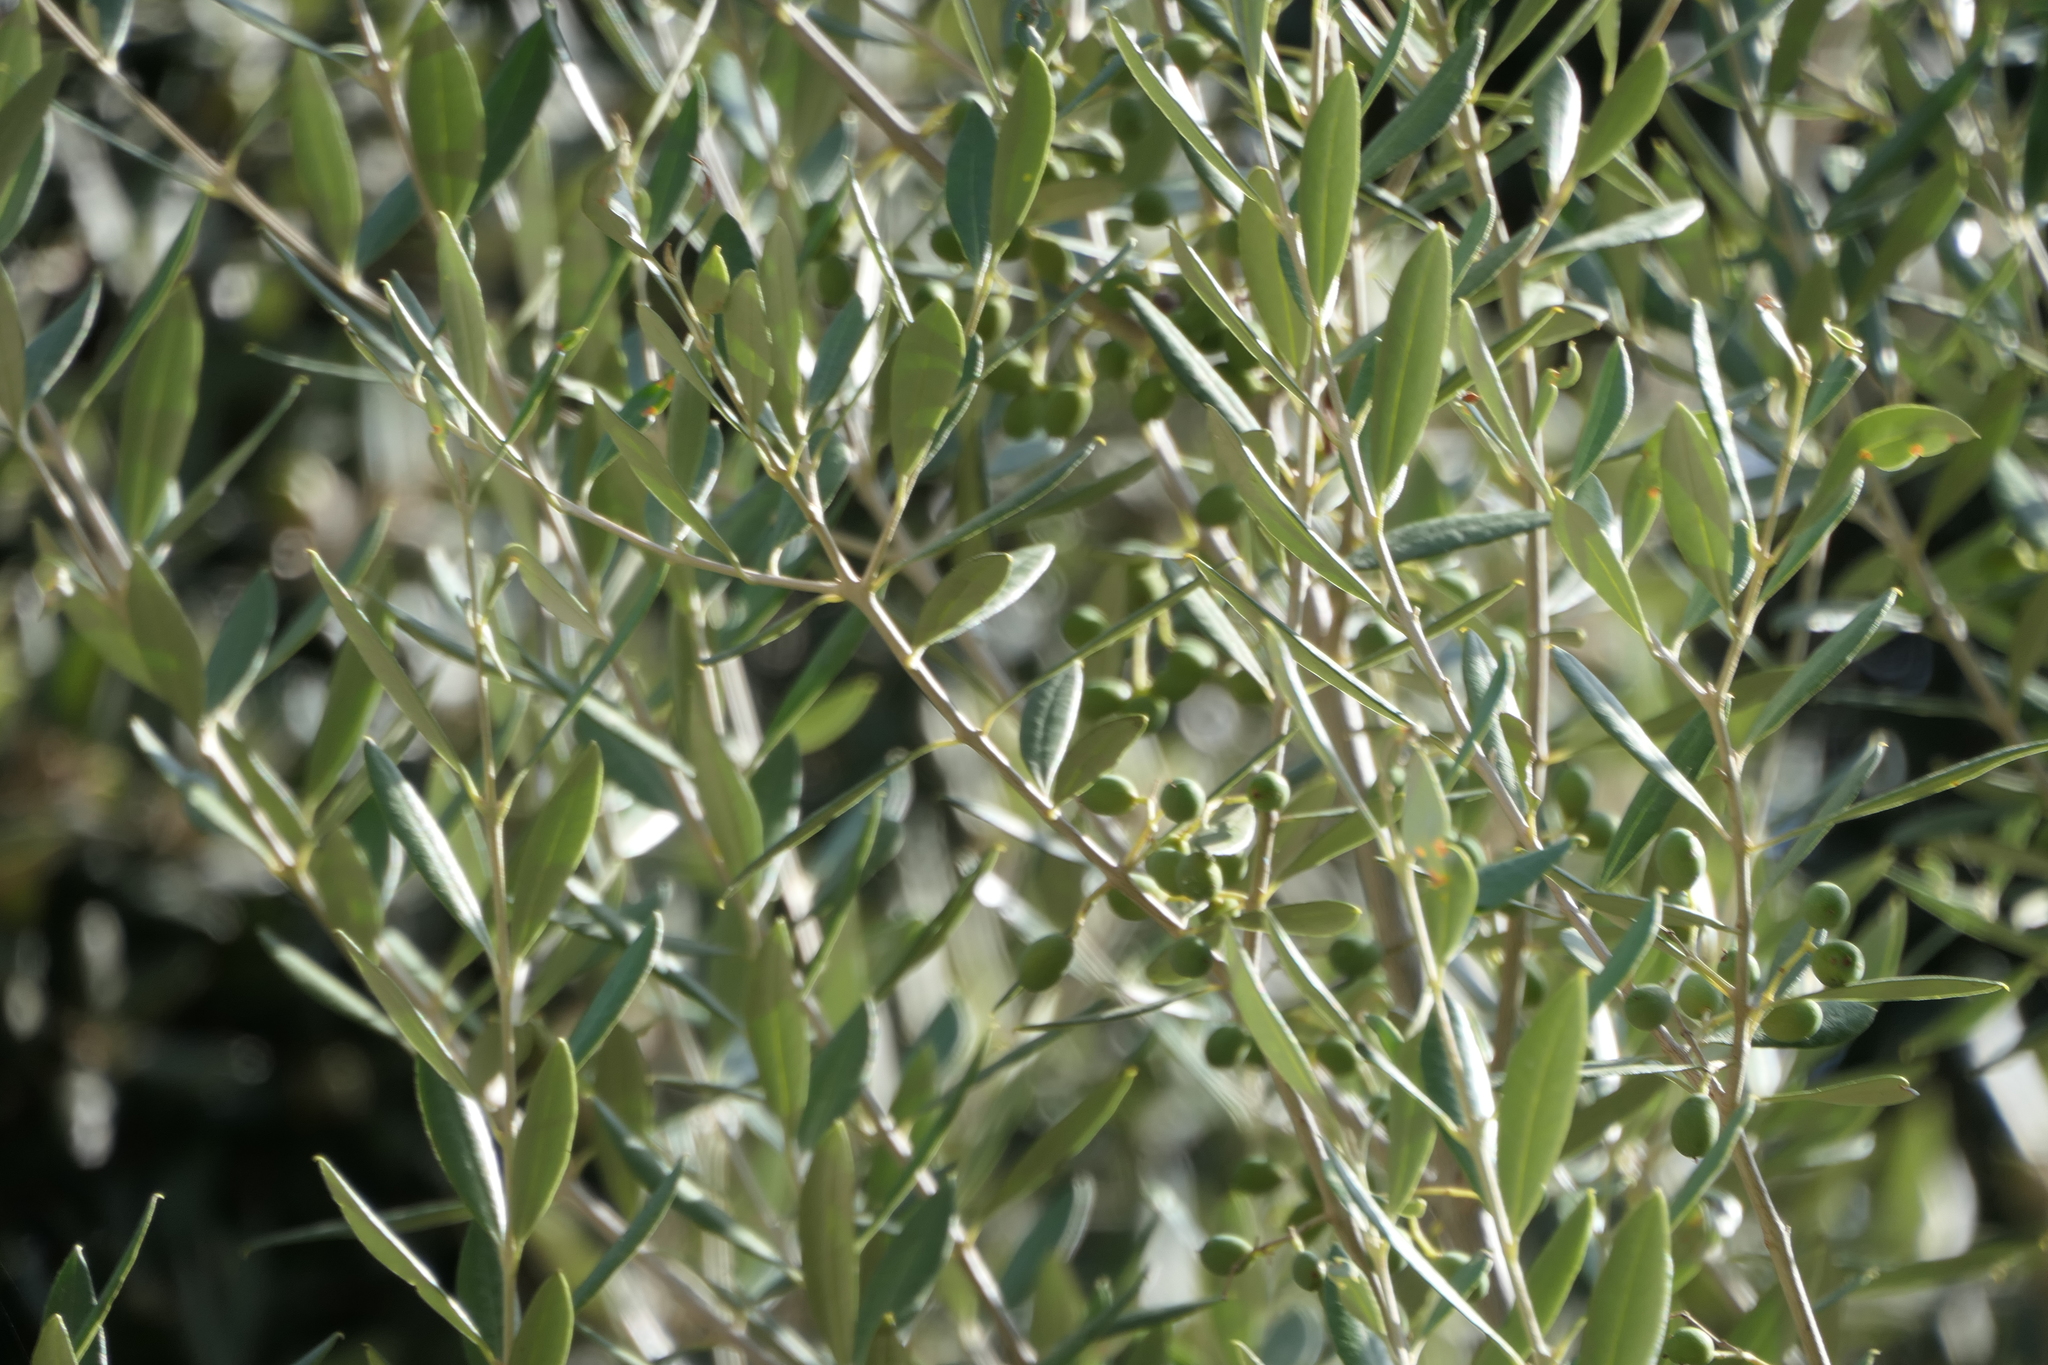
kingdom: Plantae
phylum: Tracheophyta
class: Magnoliopsida
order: Lamiales
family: Oleaceae
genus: Olea
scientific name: Olea europaea
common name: Olive
